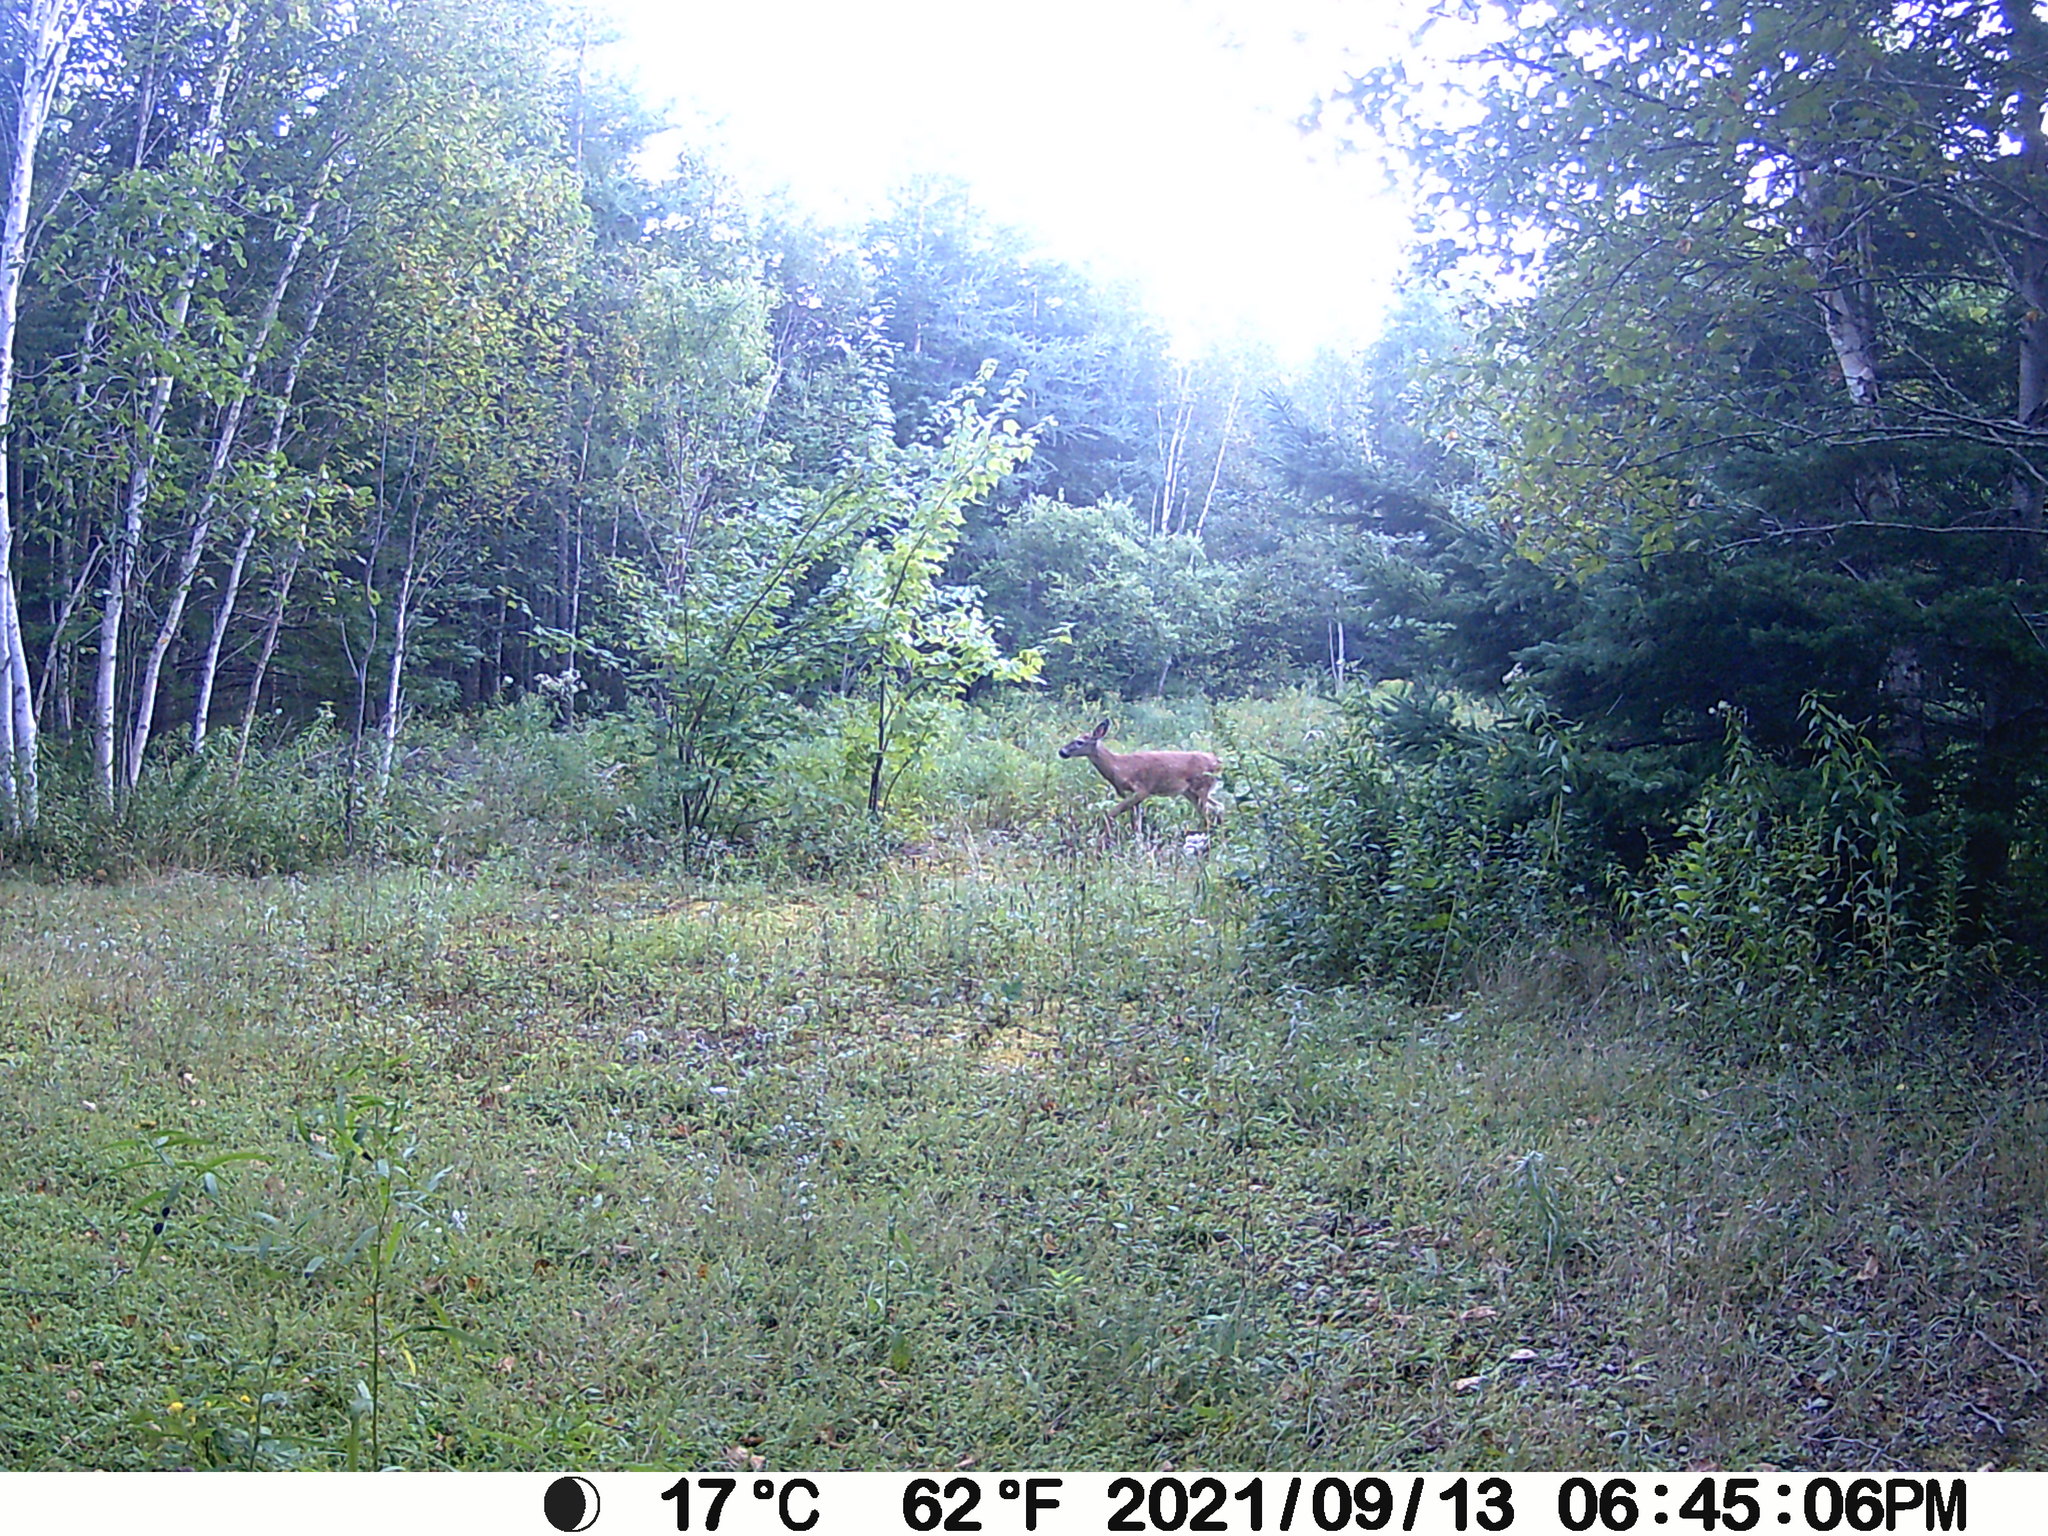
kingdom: Animalia
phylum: Chordata
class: Mammalia
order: Artiodactyla
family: Cervidae
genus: Odocoileus
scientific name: Odocoileus virginianus
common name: White-tailed deer
